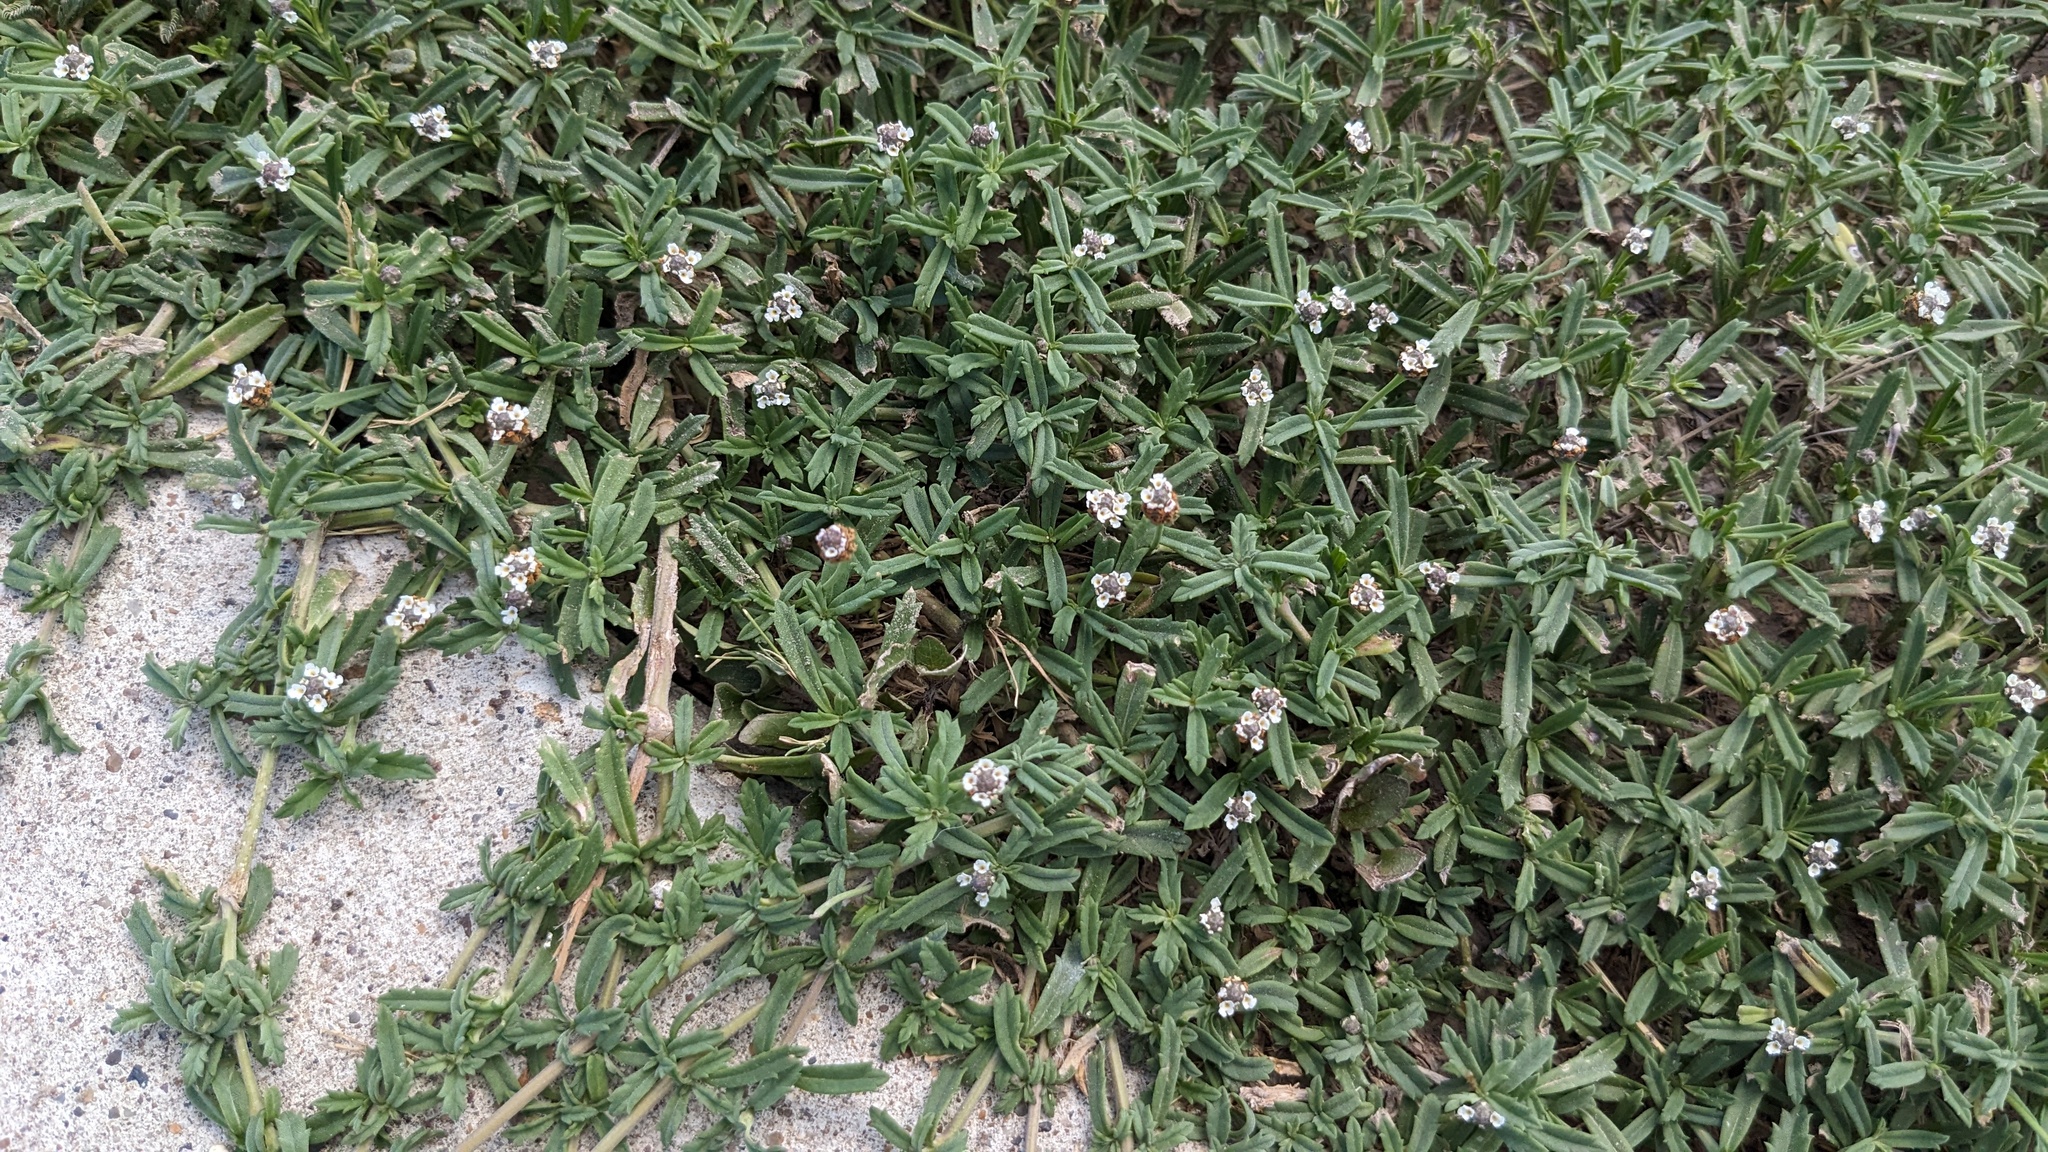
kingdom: Plantae
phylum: Tracheophyta
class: Magnoliopsida
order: Lamiales
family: Verbenaceae
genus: Phyla
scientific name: Phyla nodiflora
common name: Frogfruit
